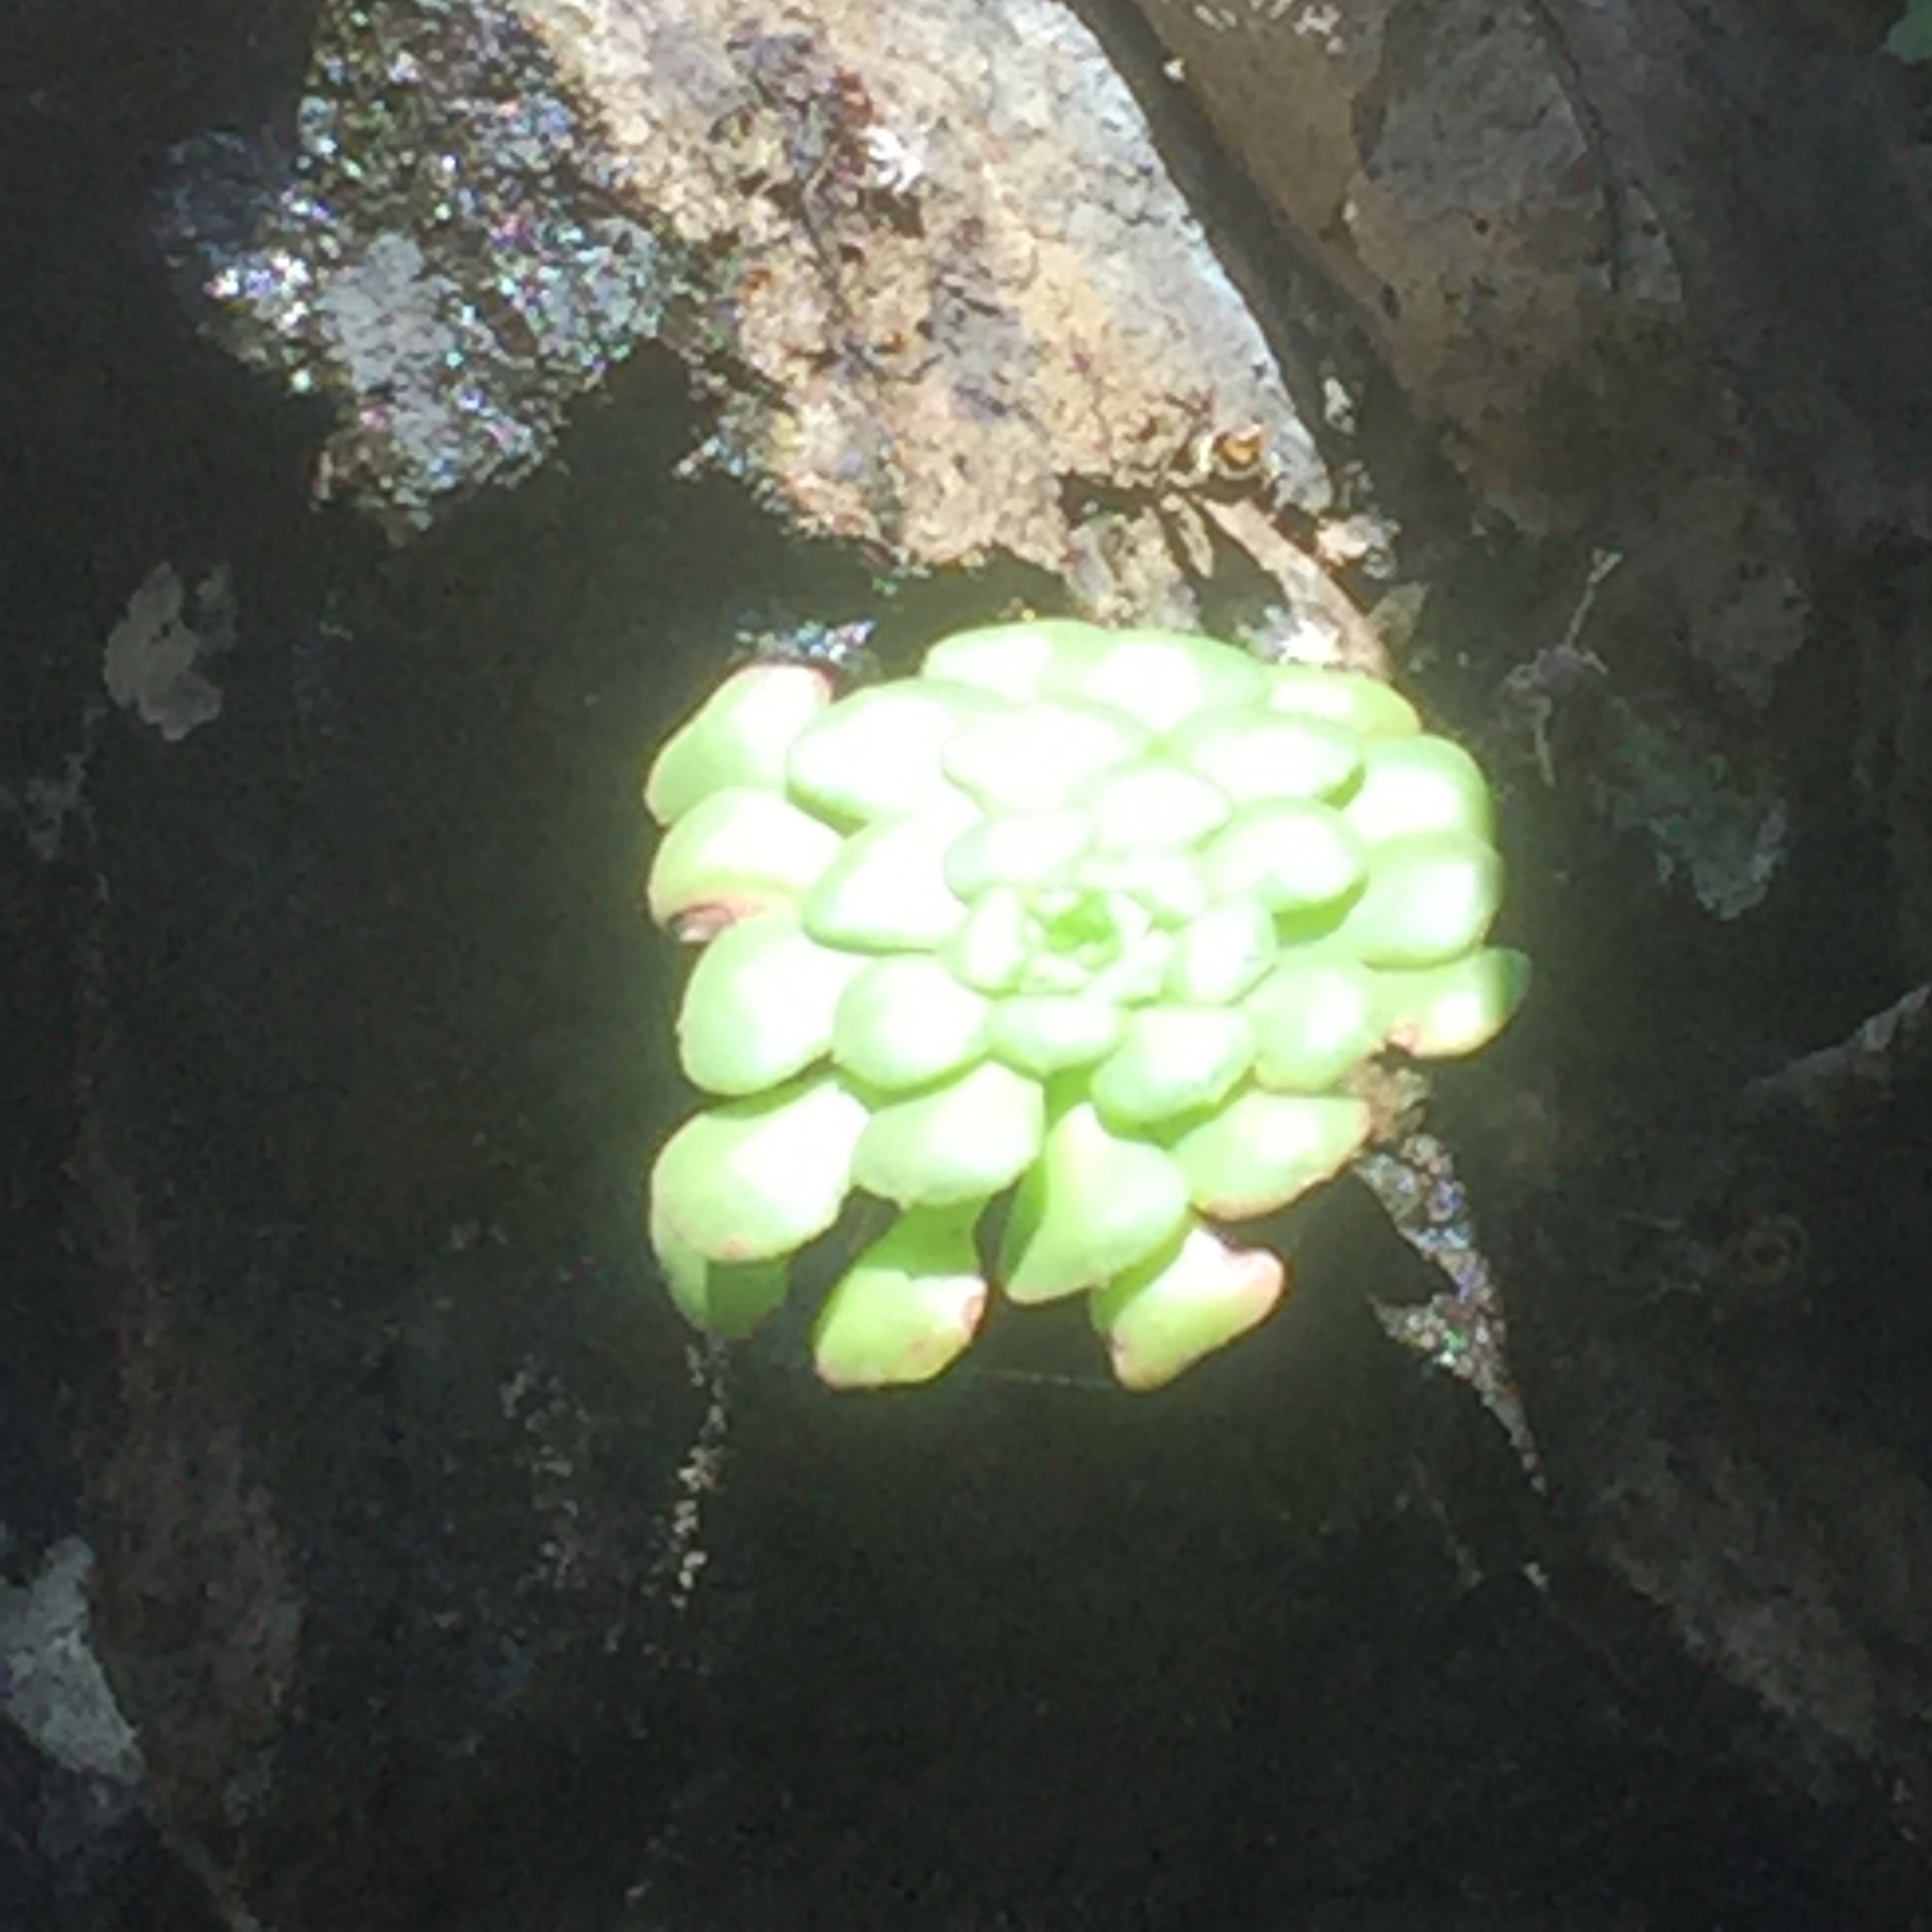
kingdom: Plantae
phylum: Tracheophyta
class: Magnoliopsida
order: Saxifragales
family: Crassulaceae
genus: Aeonium
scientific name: Aeonium glandulosum
